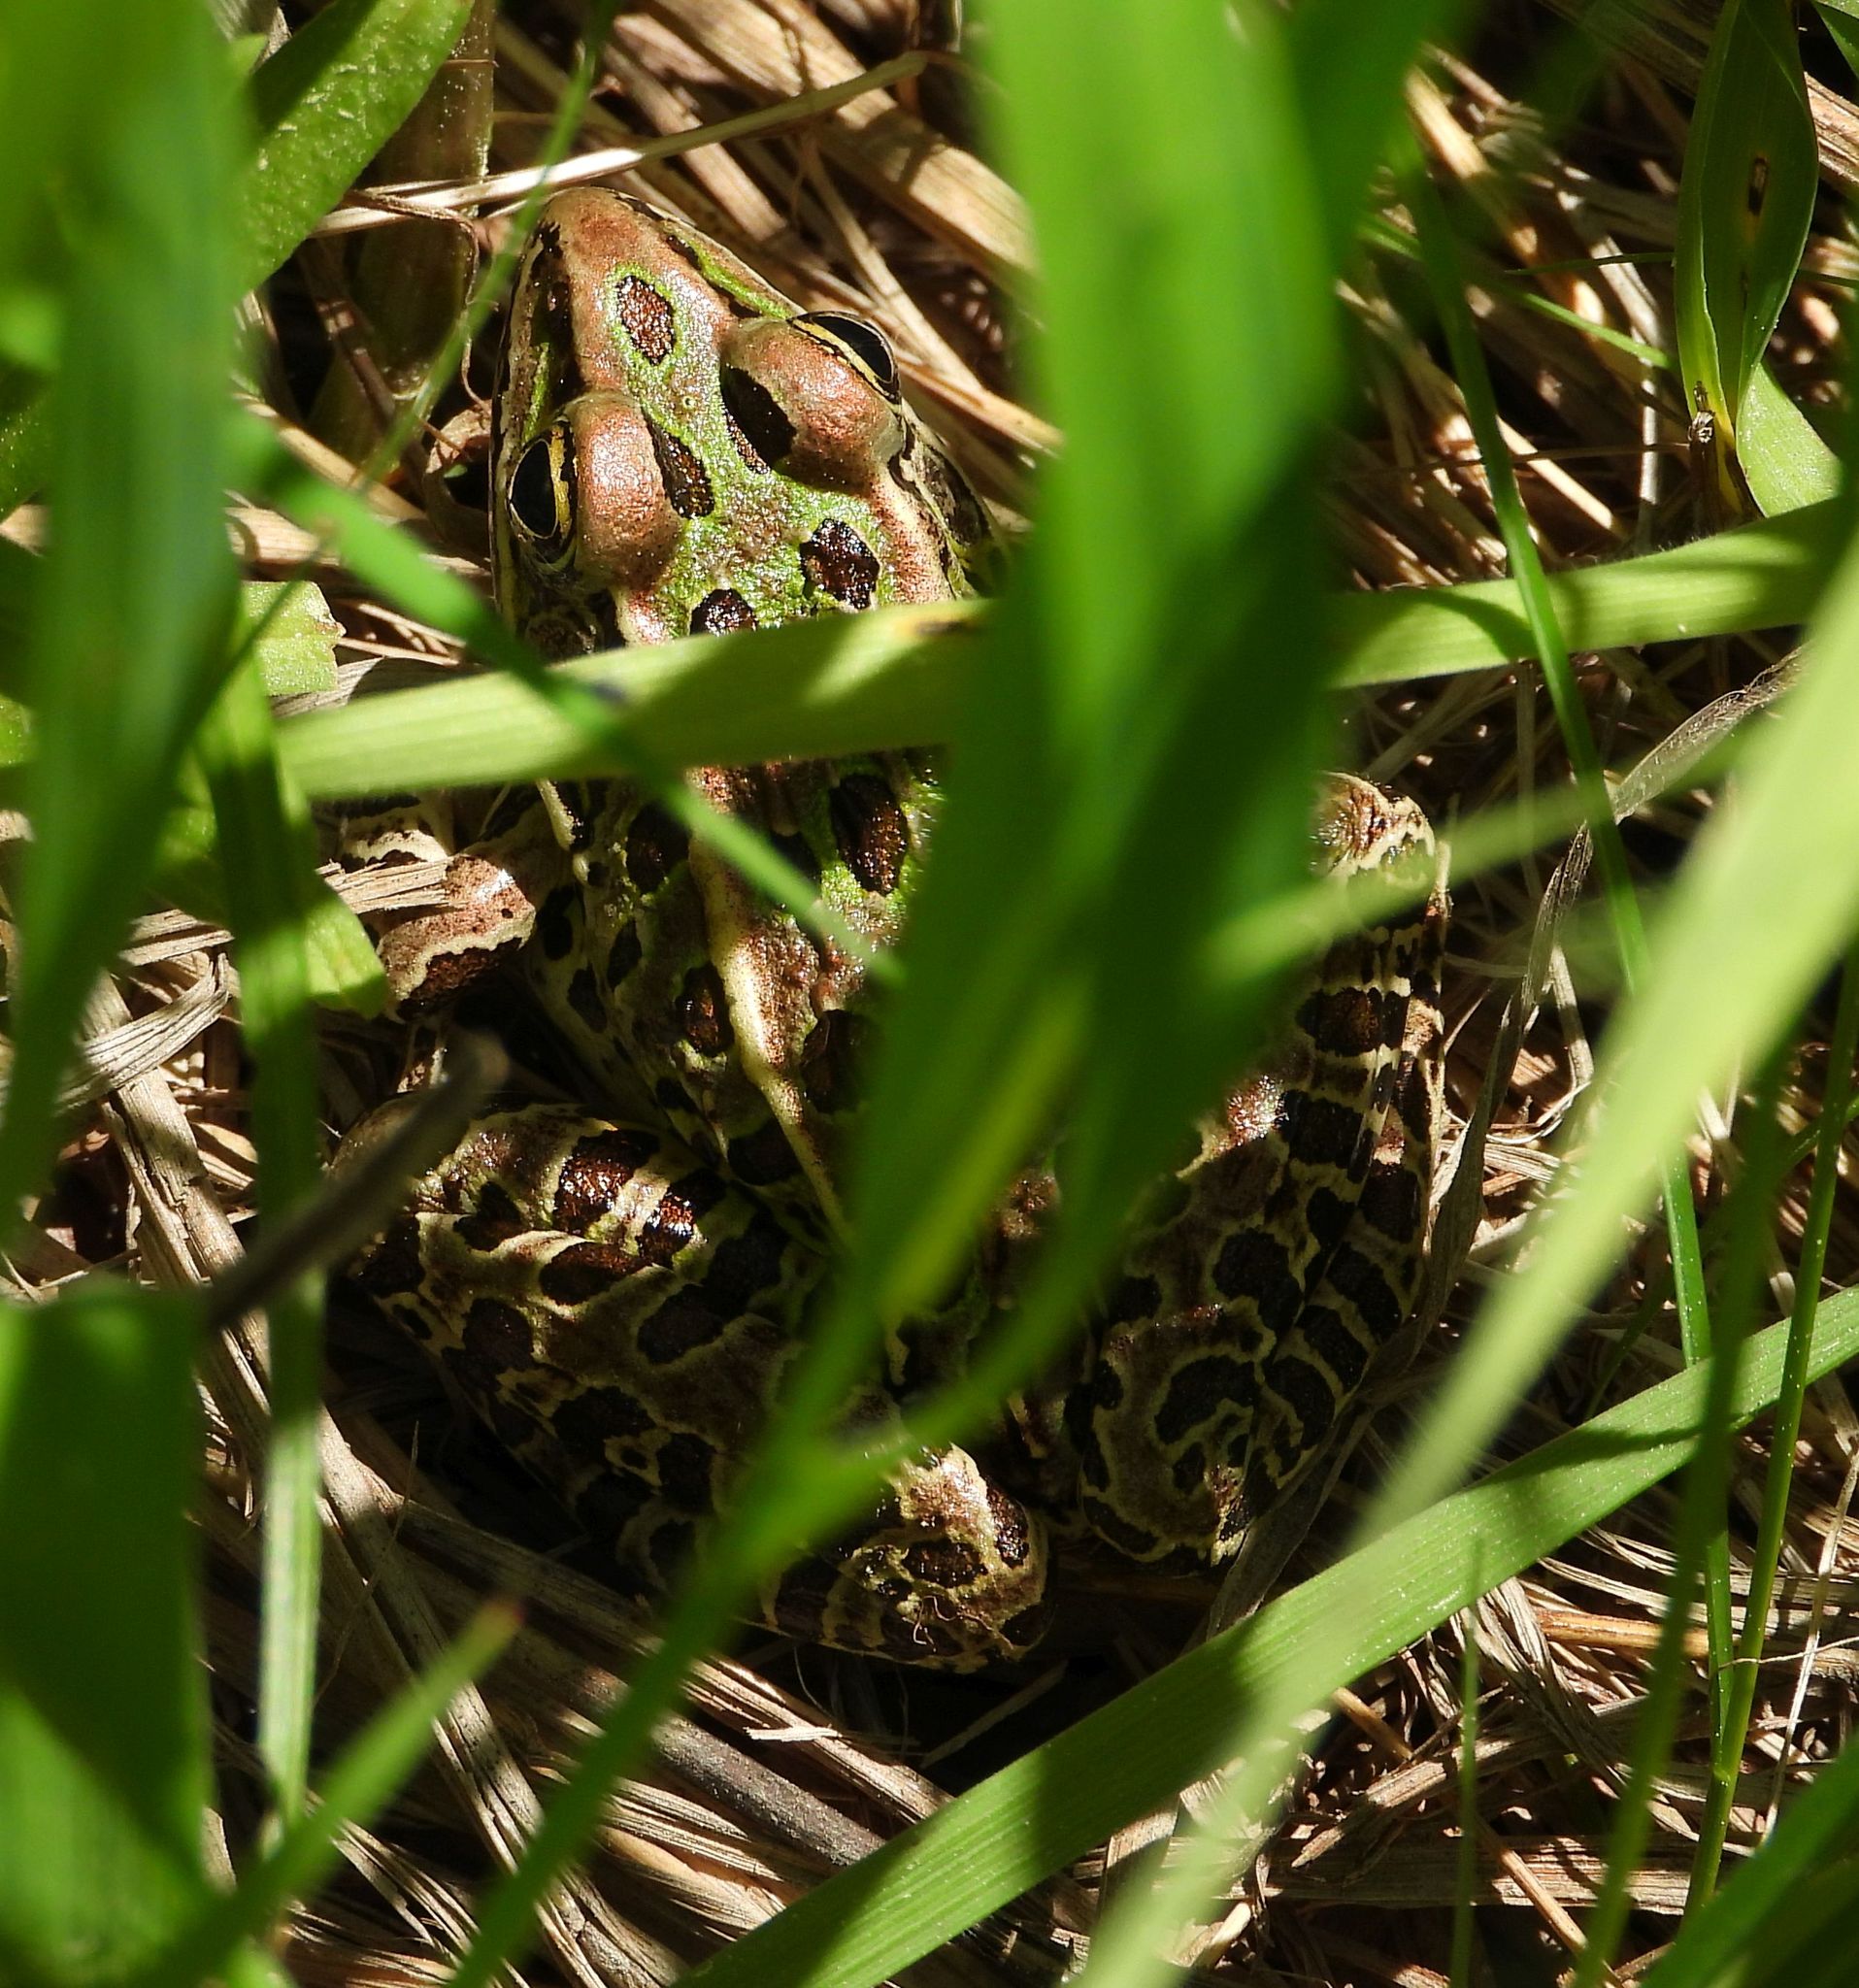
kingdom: Animalia
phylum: Chordata
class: Amphibia
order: Anura
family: Ranidae
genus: Lithobates
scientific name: Lithobates pipiens
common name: Northern leopard frog
